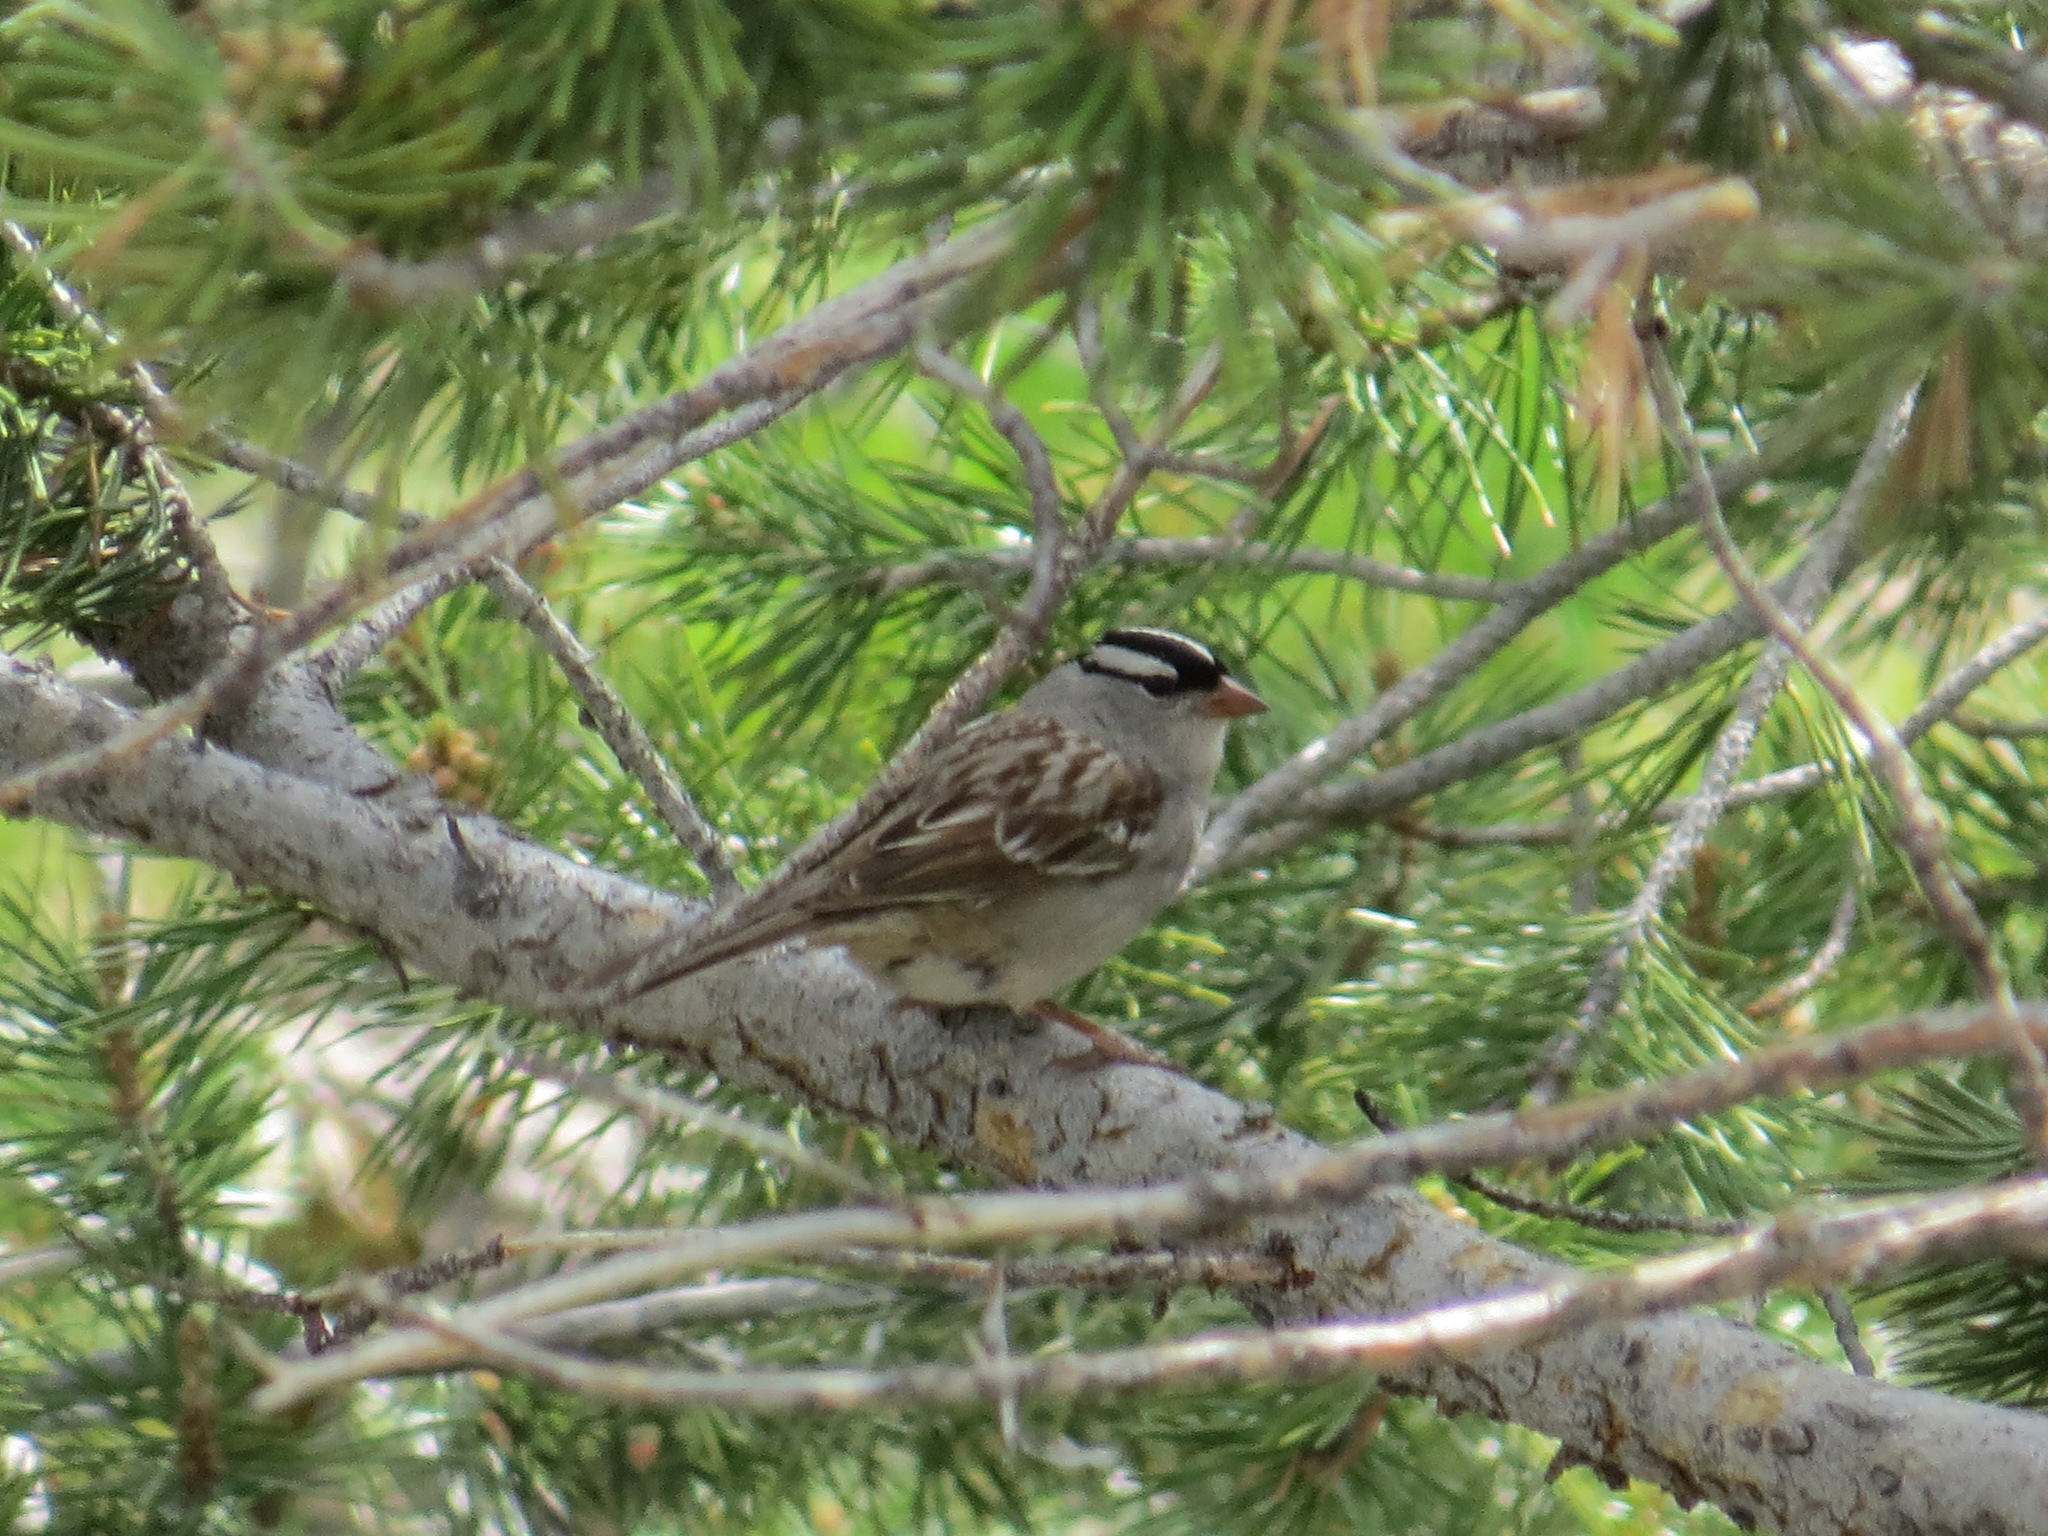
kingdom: Animalia
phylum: Chordata
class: Aves
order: Passeriformes
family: Passerellidae
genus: Zonotrichia
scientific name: Zonotrichia leucophrys
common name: White-crowned sparrow
